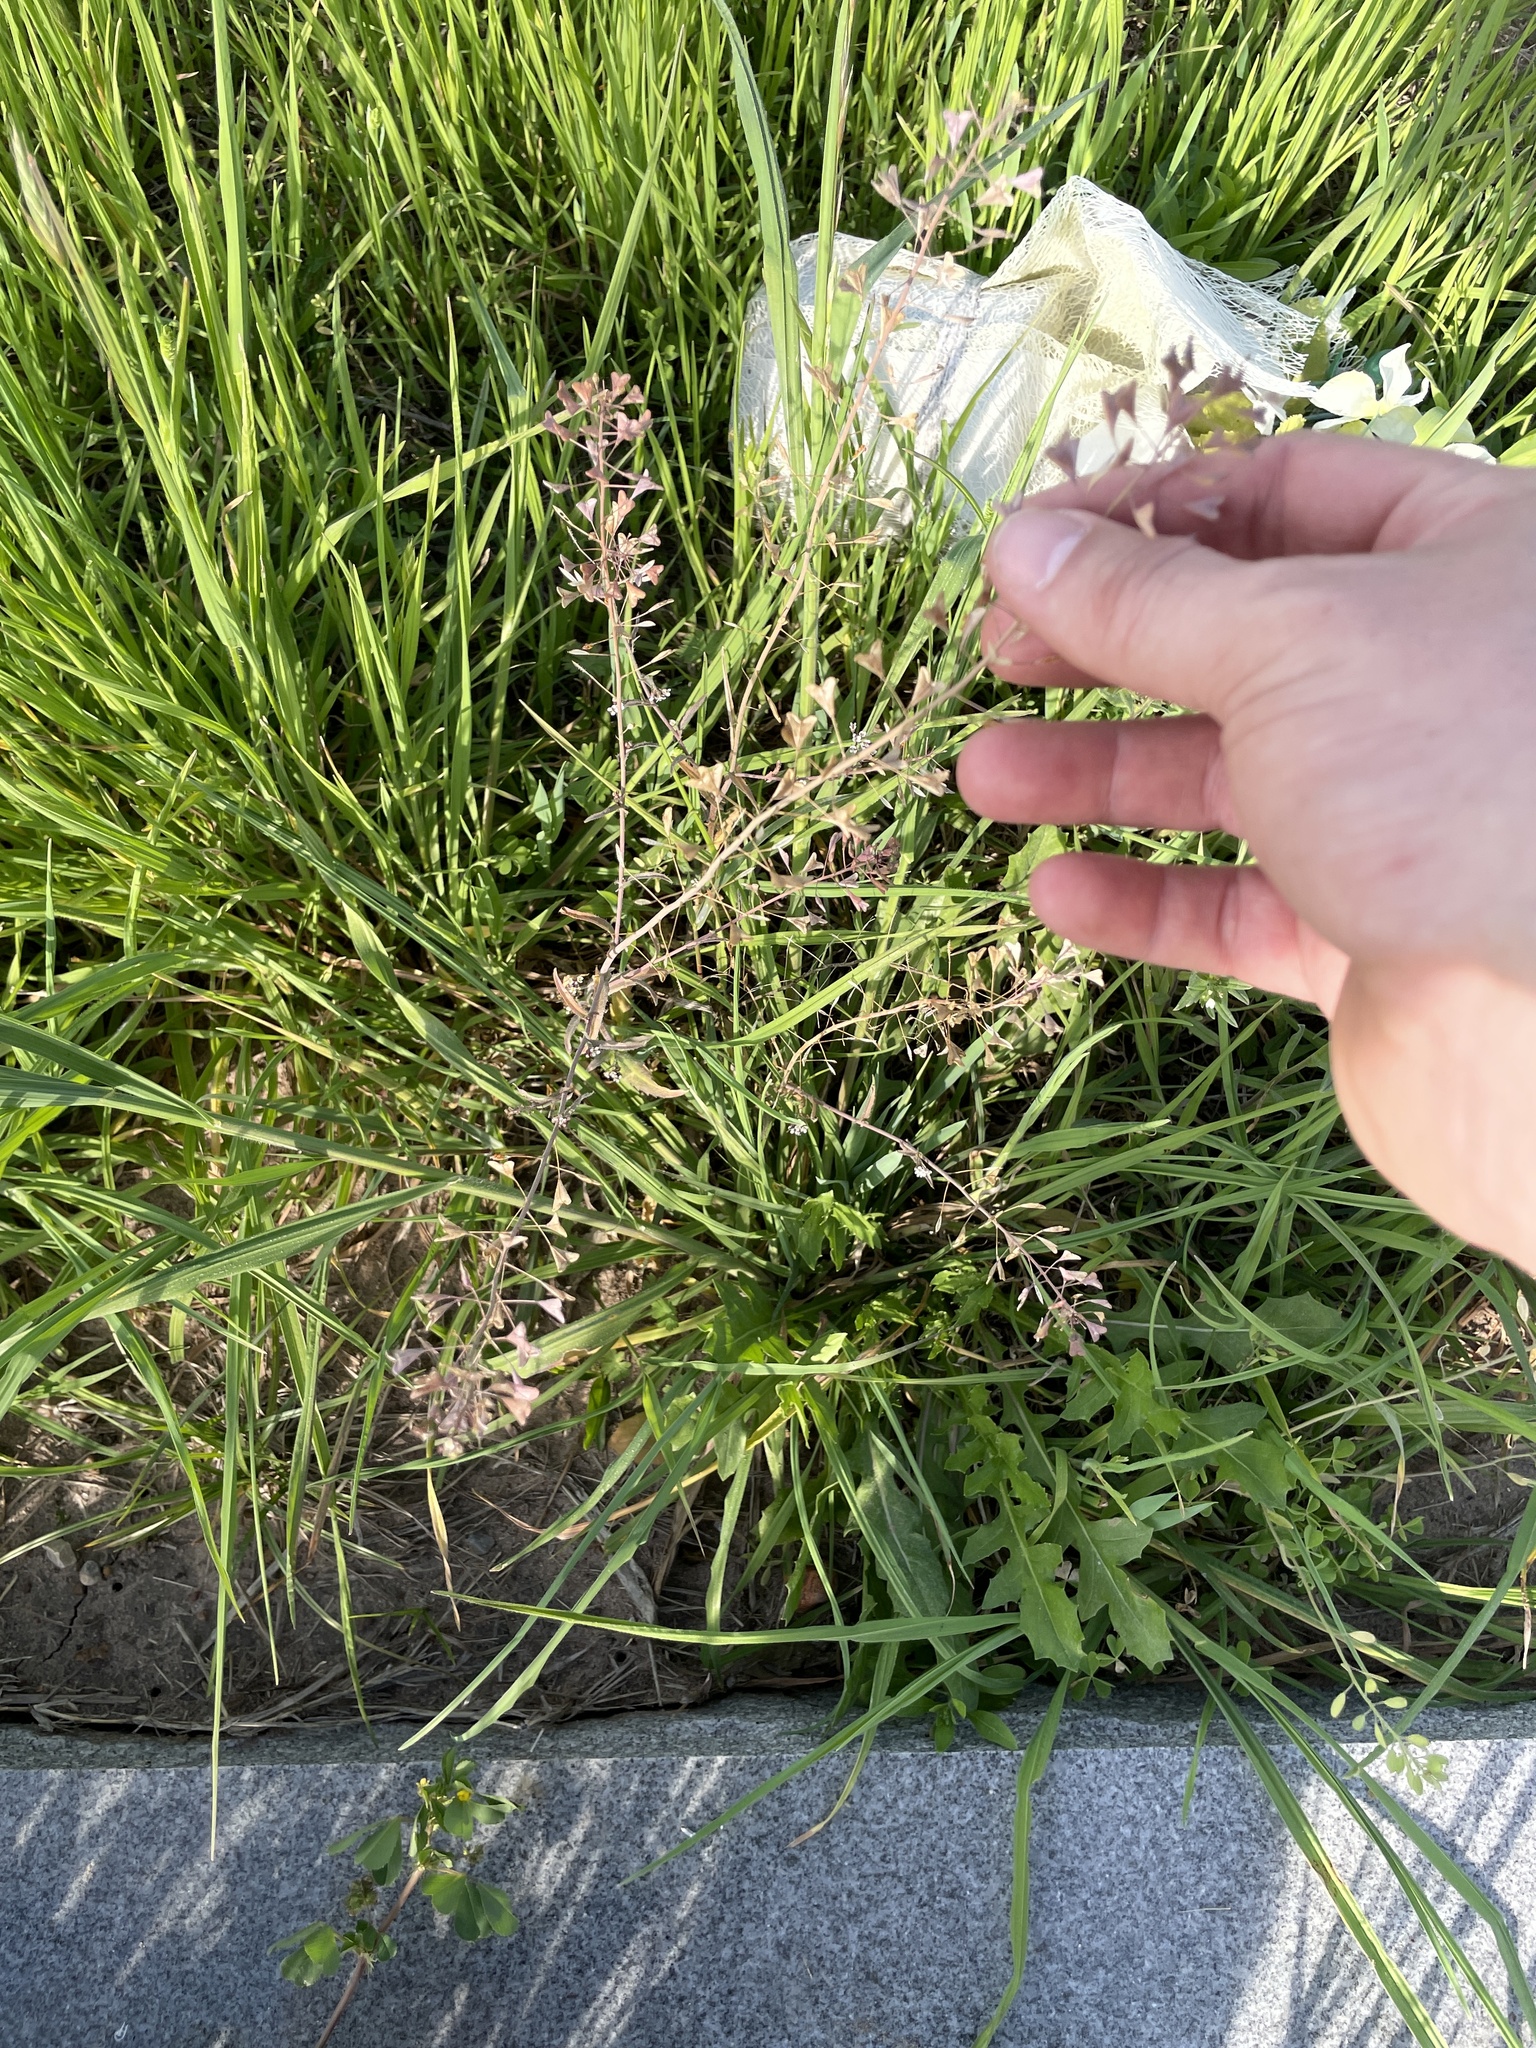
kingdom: Plantae
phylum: Tracheophyta
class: Magnoliopsida
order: Brassicales
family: Brassicaceae
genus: Capsella
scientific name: Capsella bursa-pastoris
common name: Shepherd's purse
